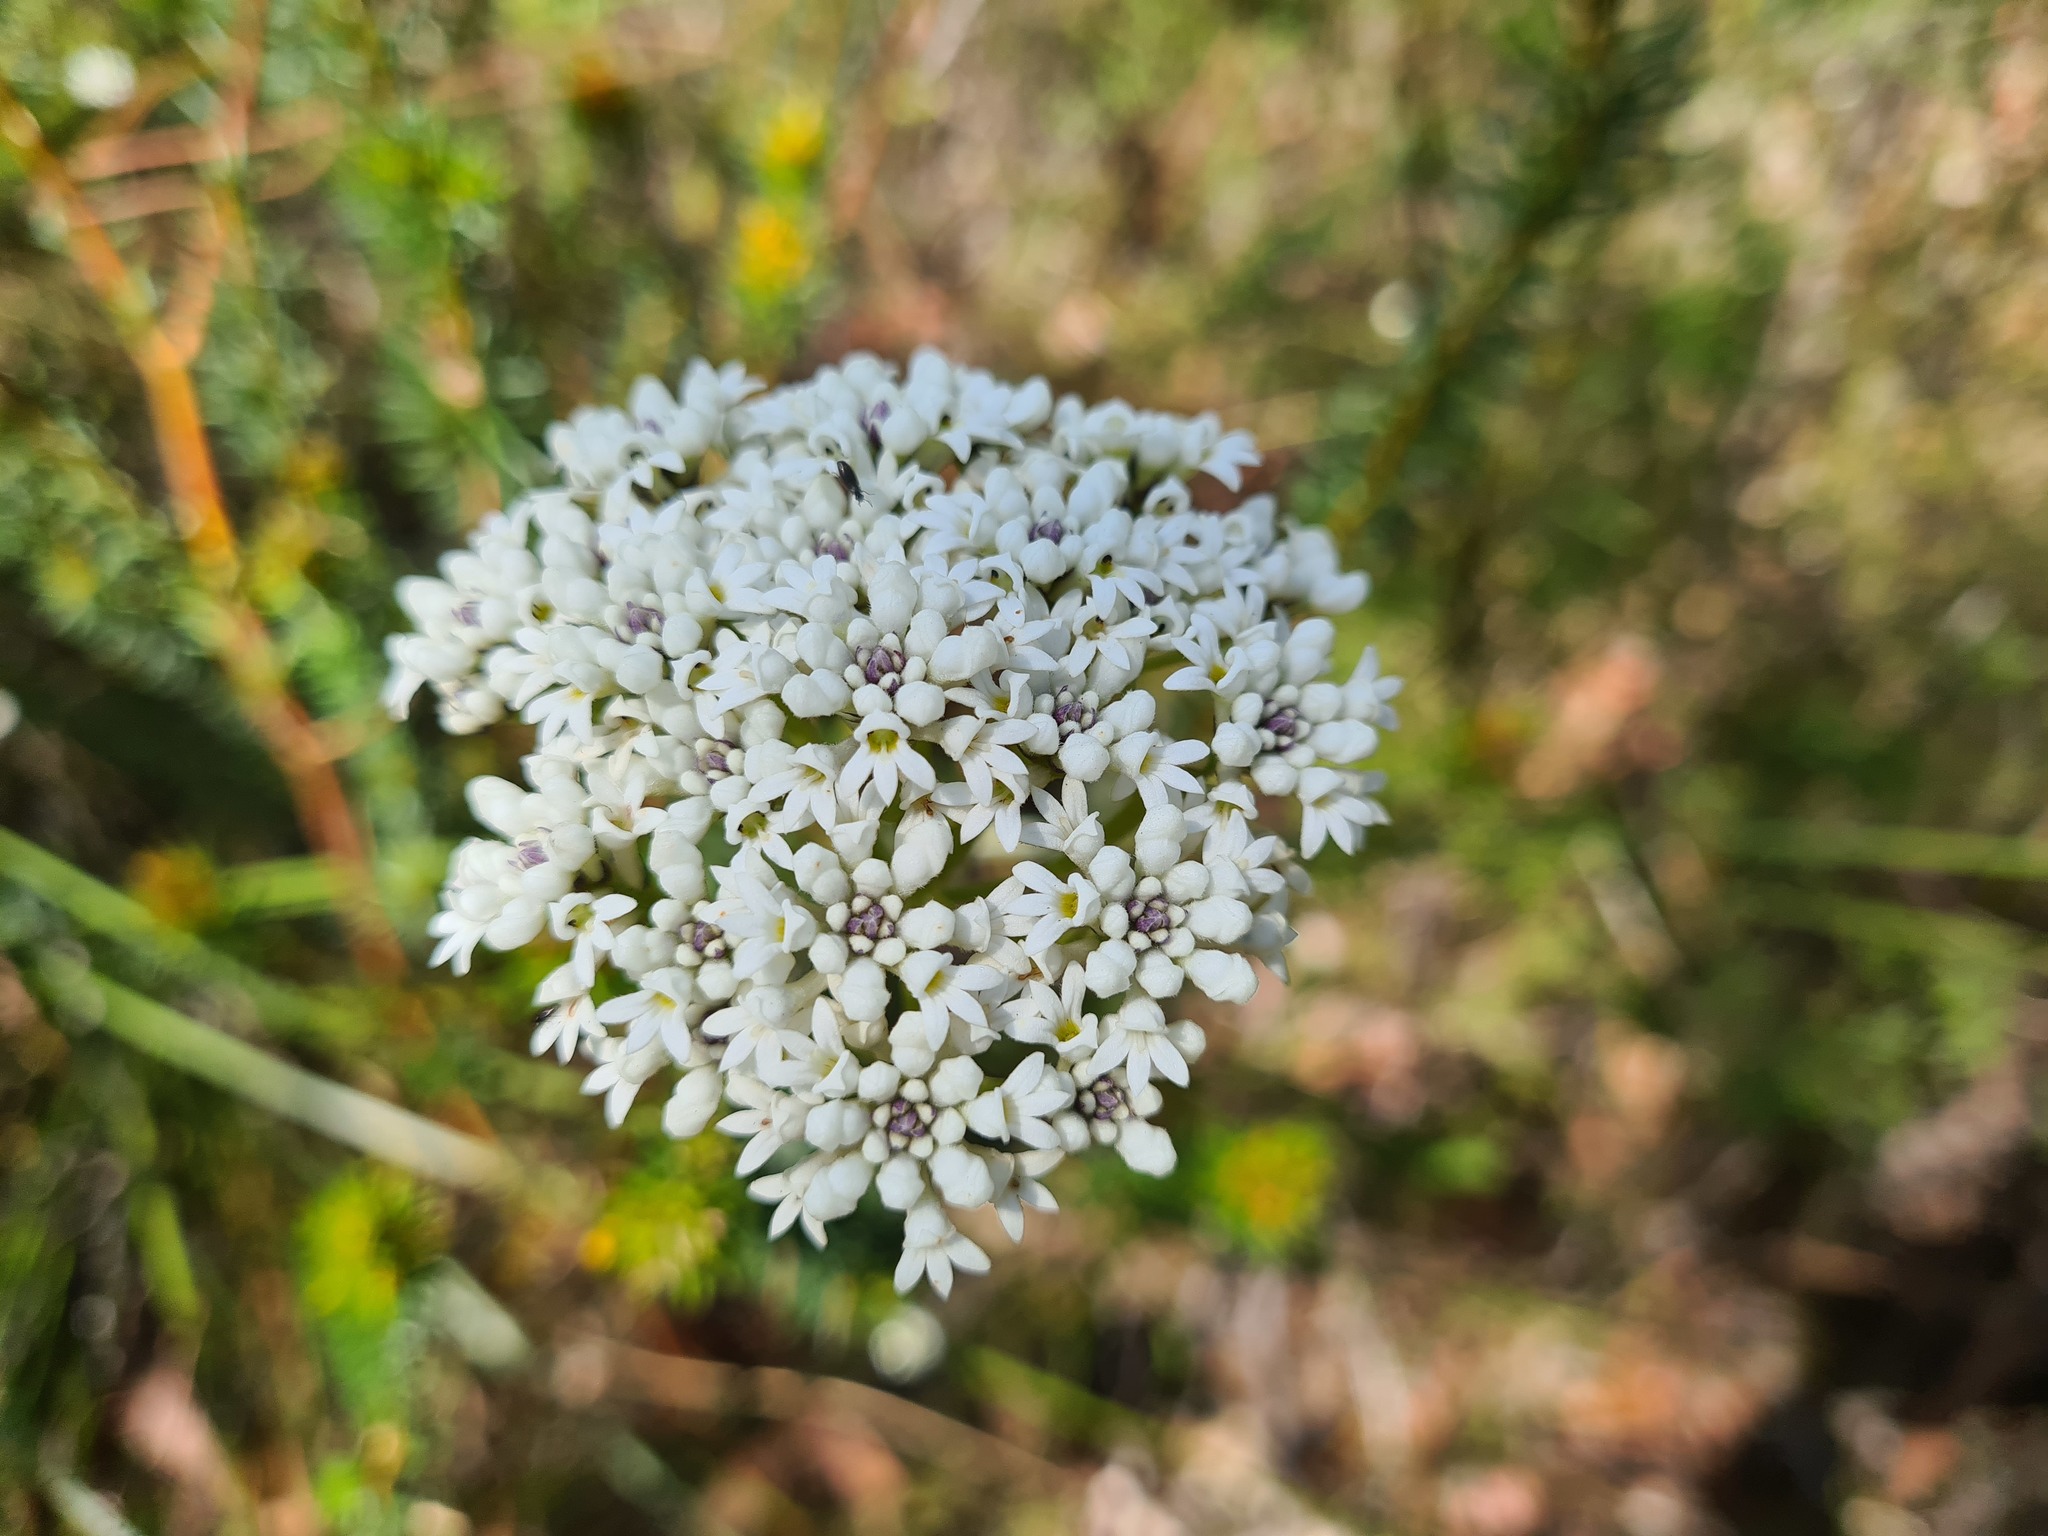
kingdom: Plantae
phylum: Tracheophyta
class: Magnoliopsida
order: Proteales
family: Proteaceae
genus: Conospermum
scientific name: Conospermum longifolium
